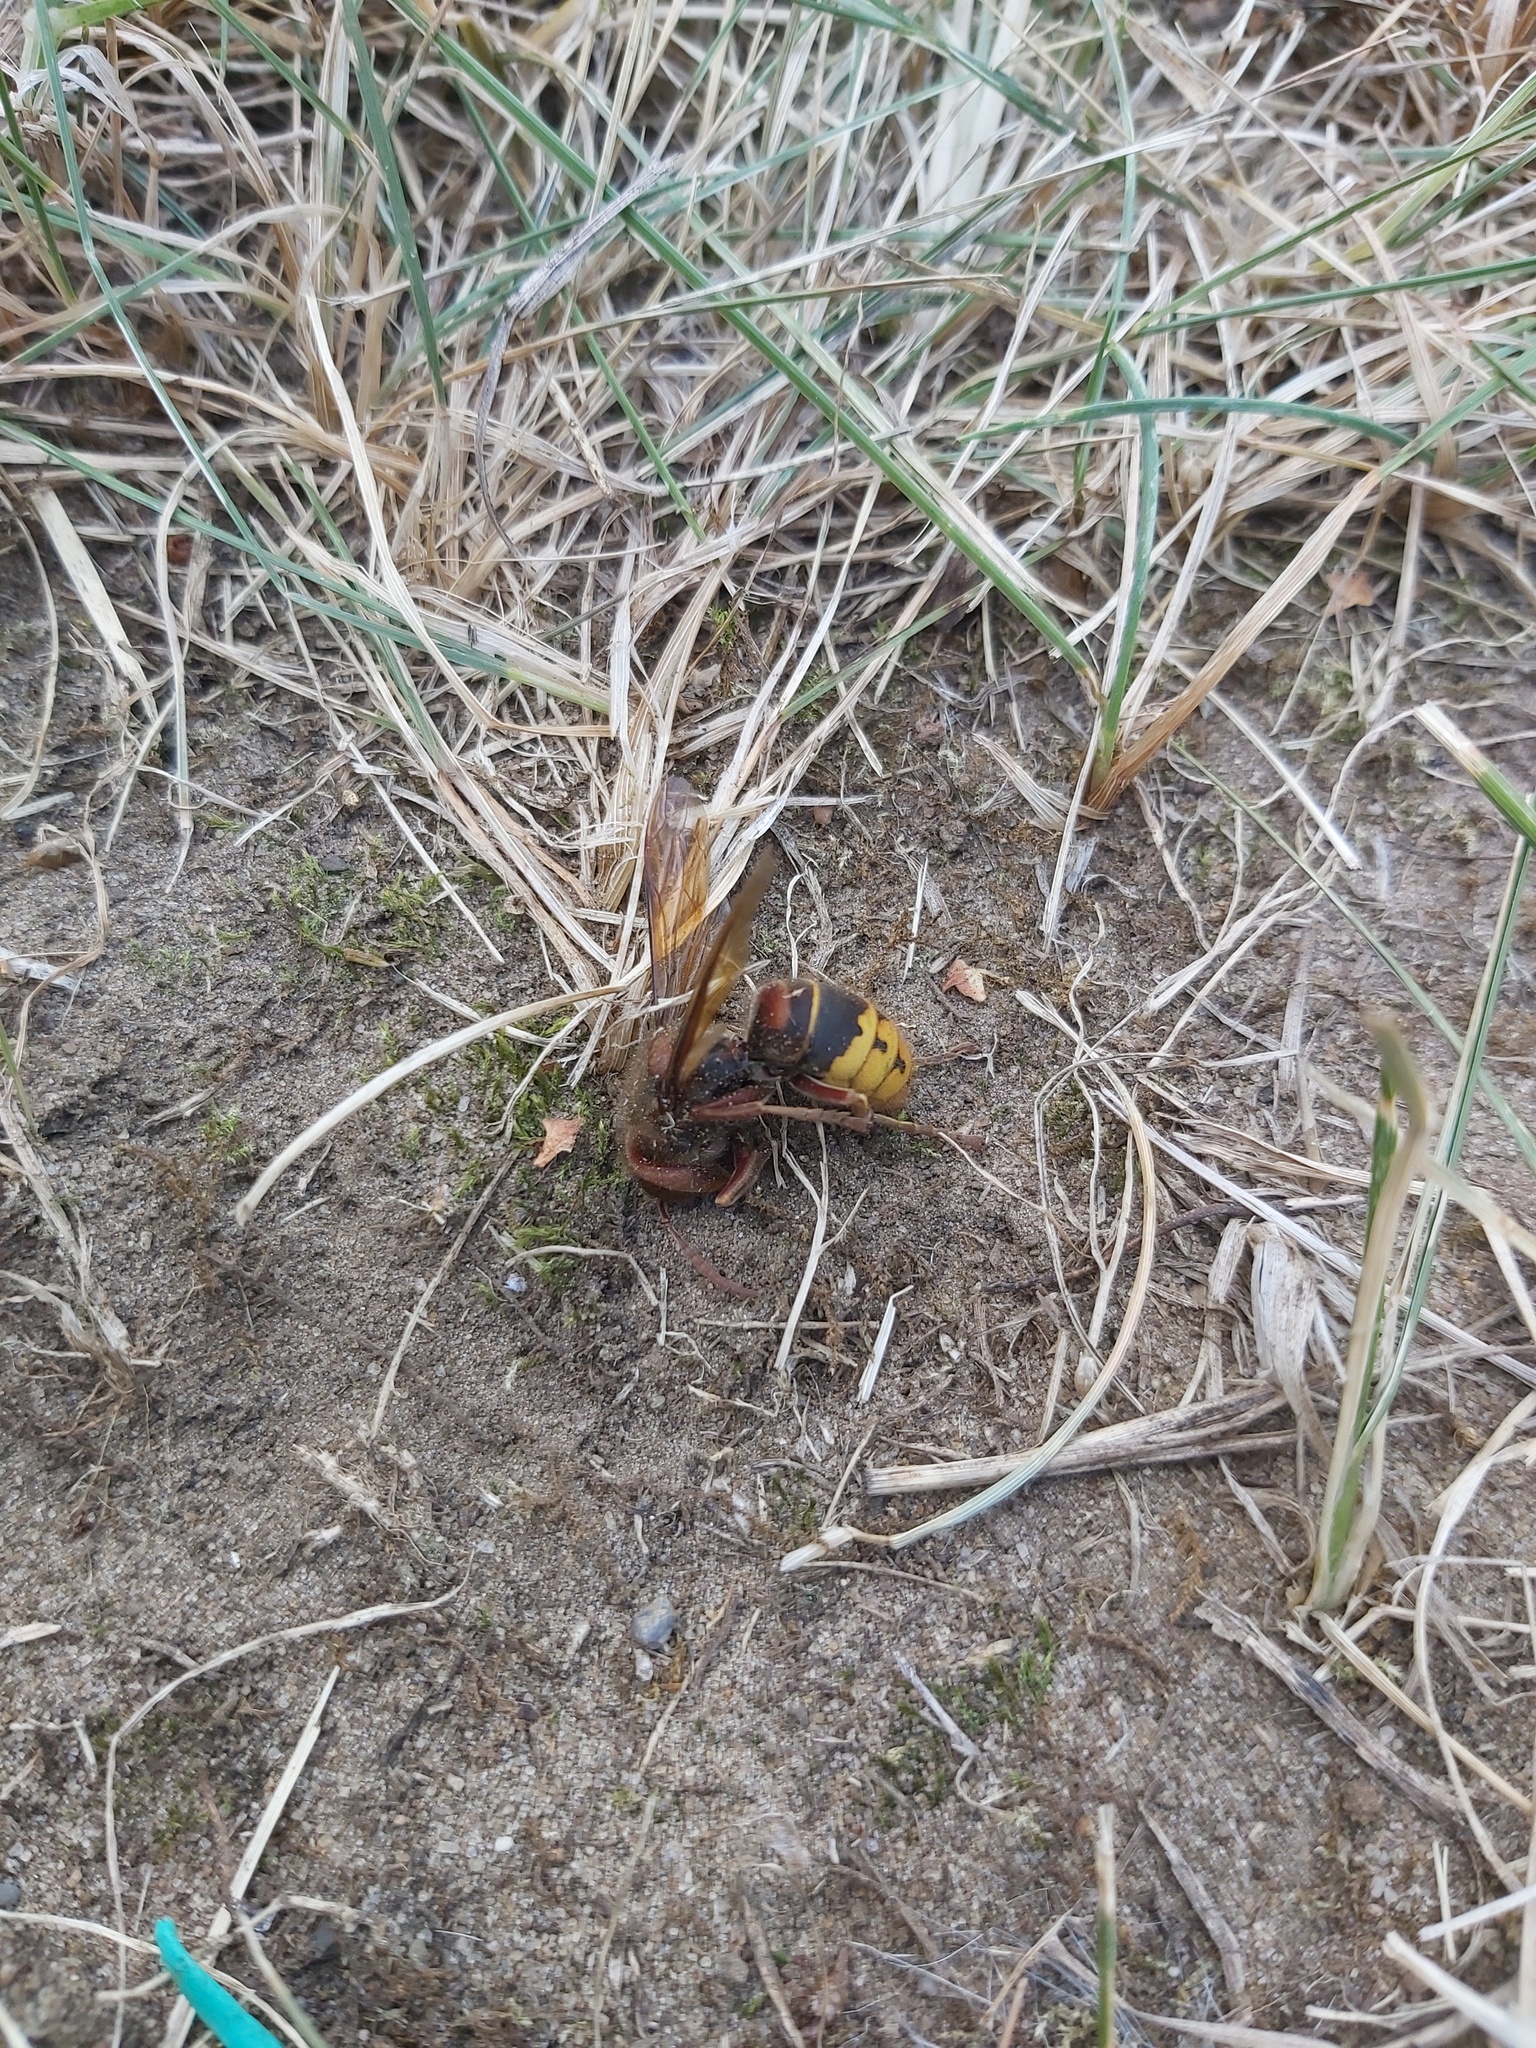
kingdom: Animalia
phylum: Arthropoda
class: Insecta
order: Hymenoptera
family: Vespidae
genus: Vespa
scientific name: Vespa crabro
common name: Hornet
